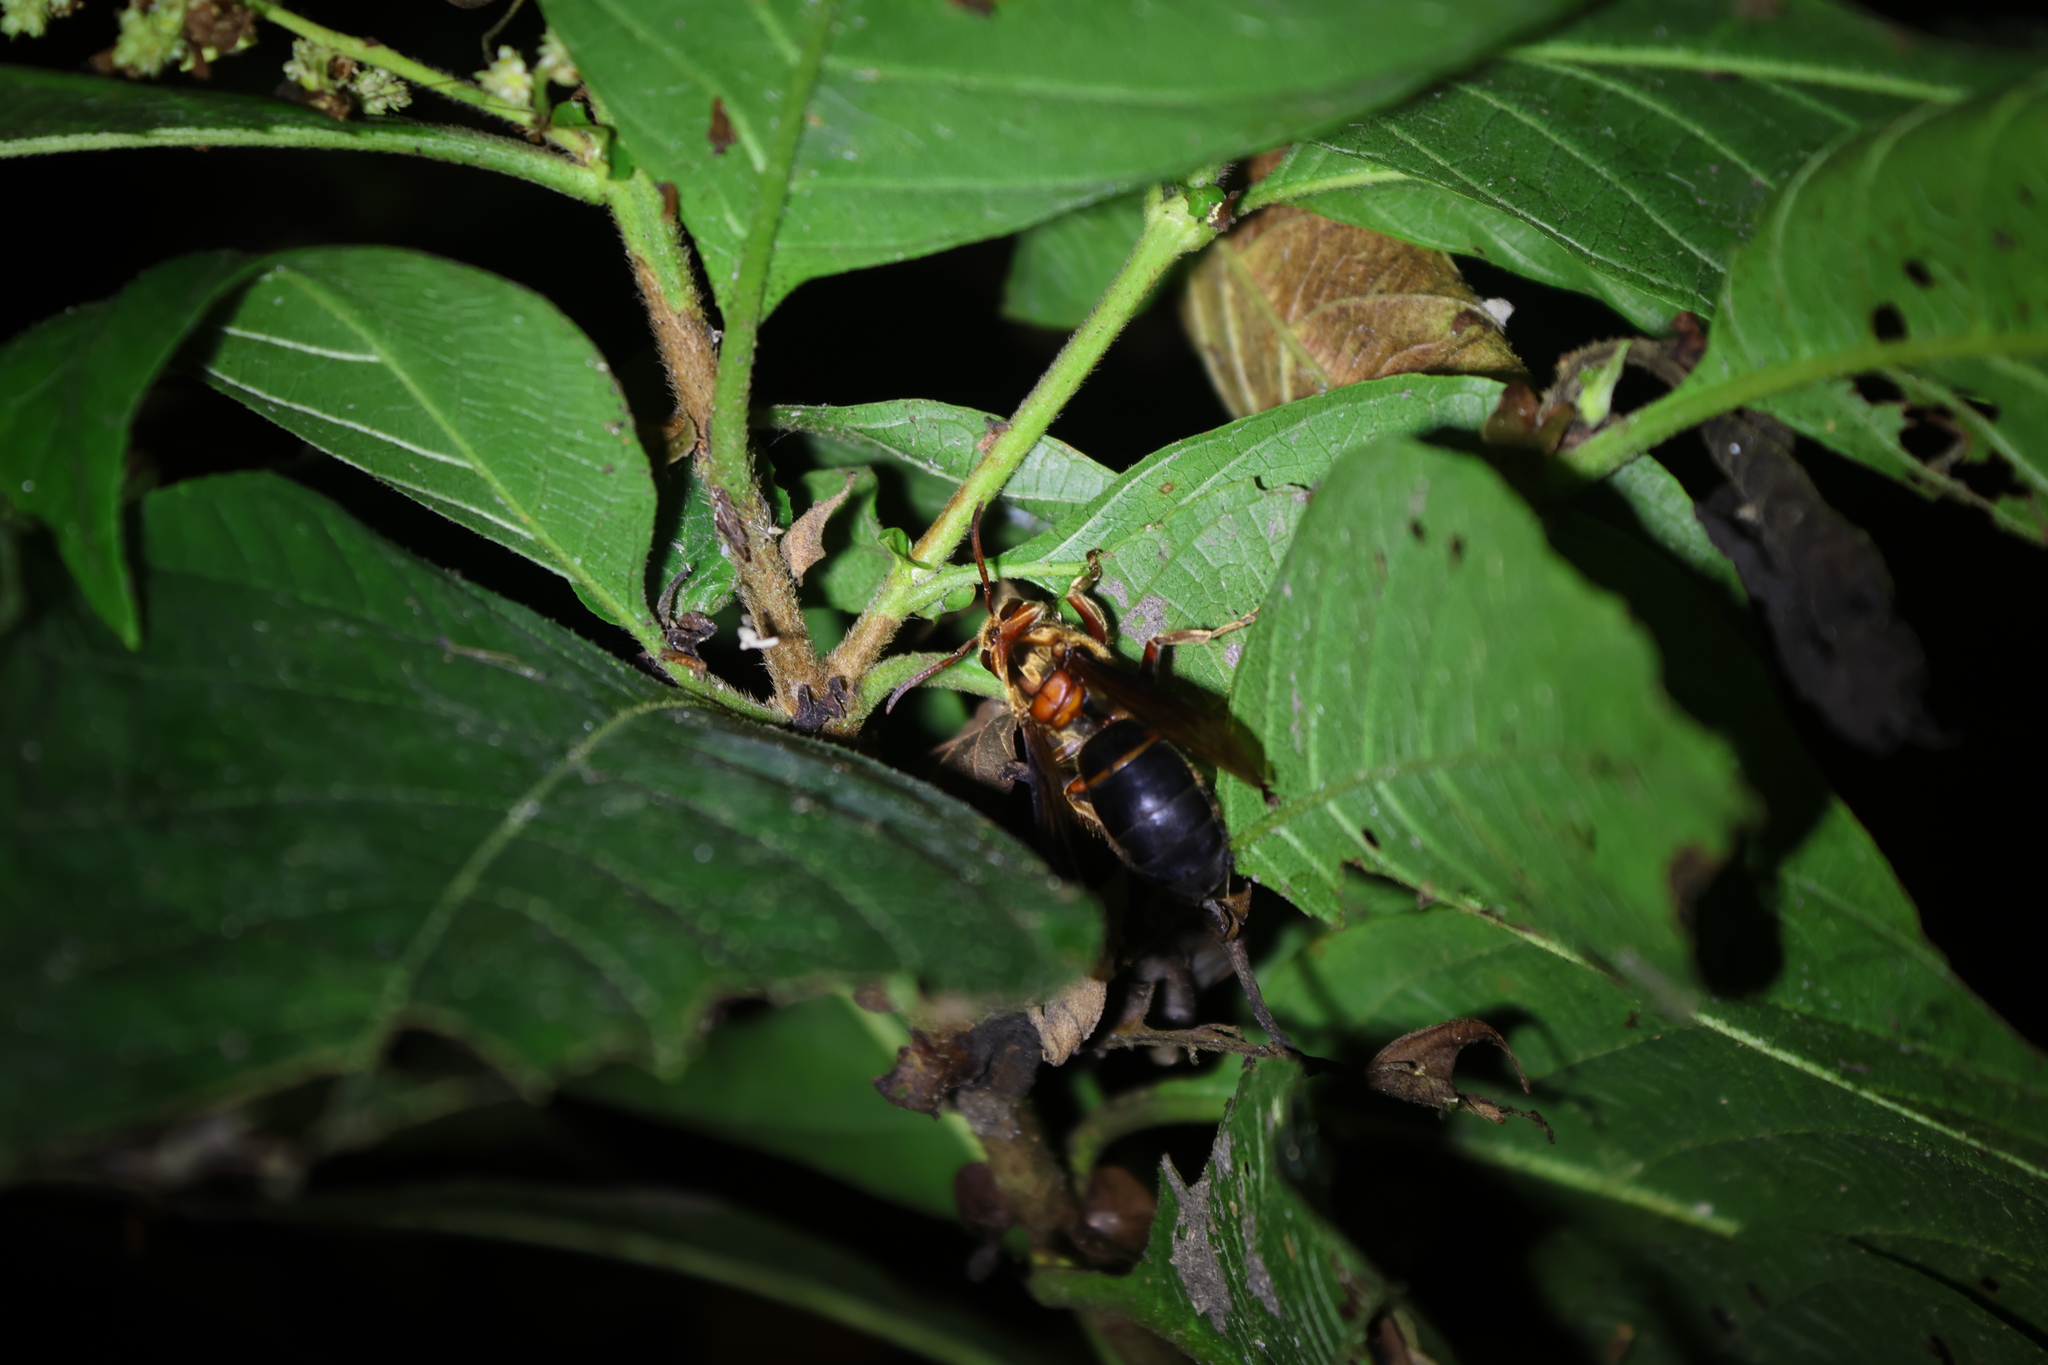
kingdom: Animalia
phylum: Arthropoda
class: Insecta
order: Hymenoptera
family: Vespidae
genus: Vespa
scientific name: Vespa basalis
